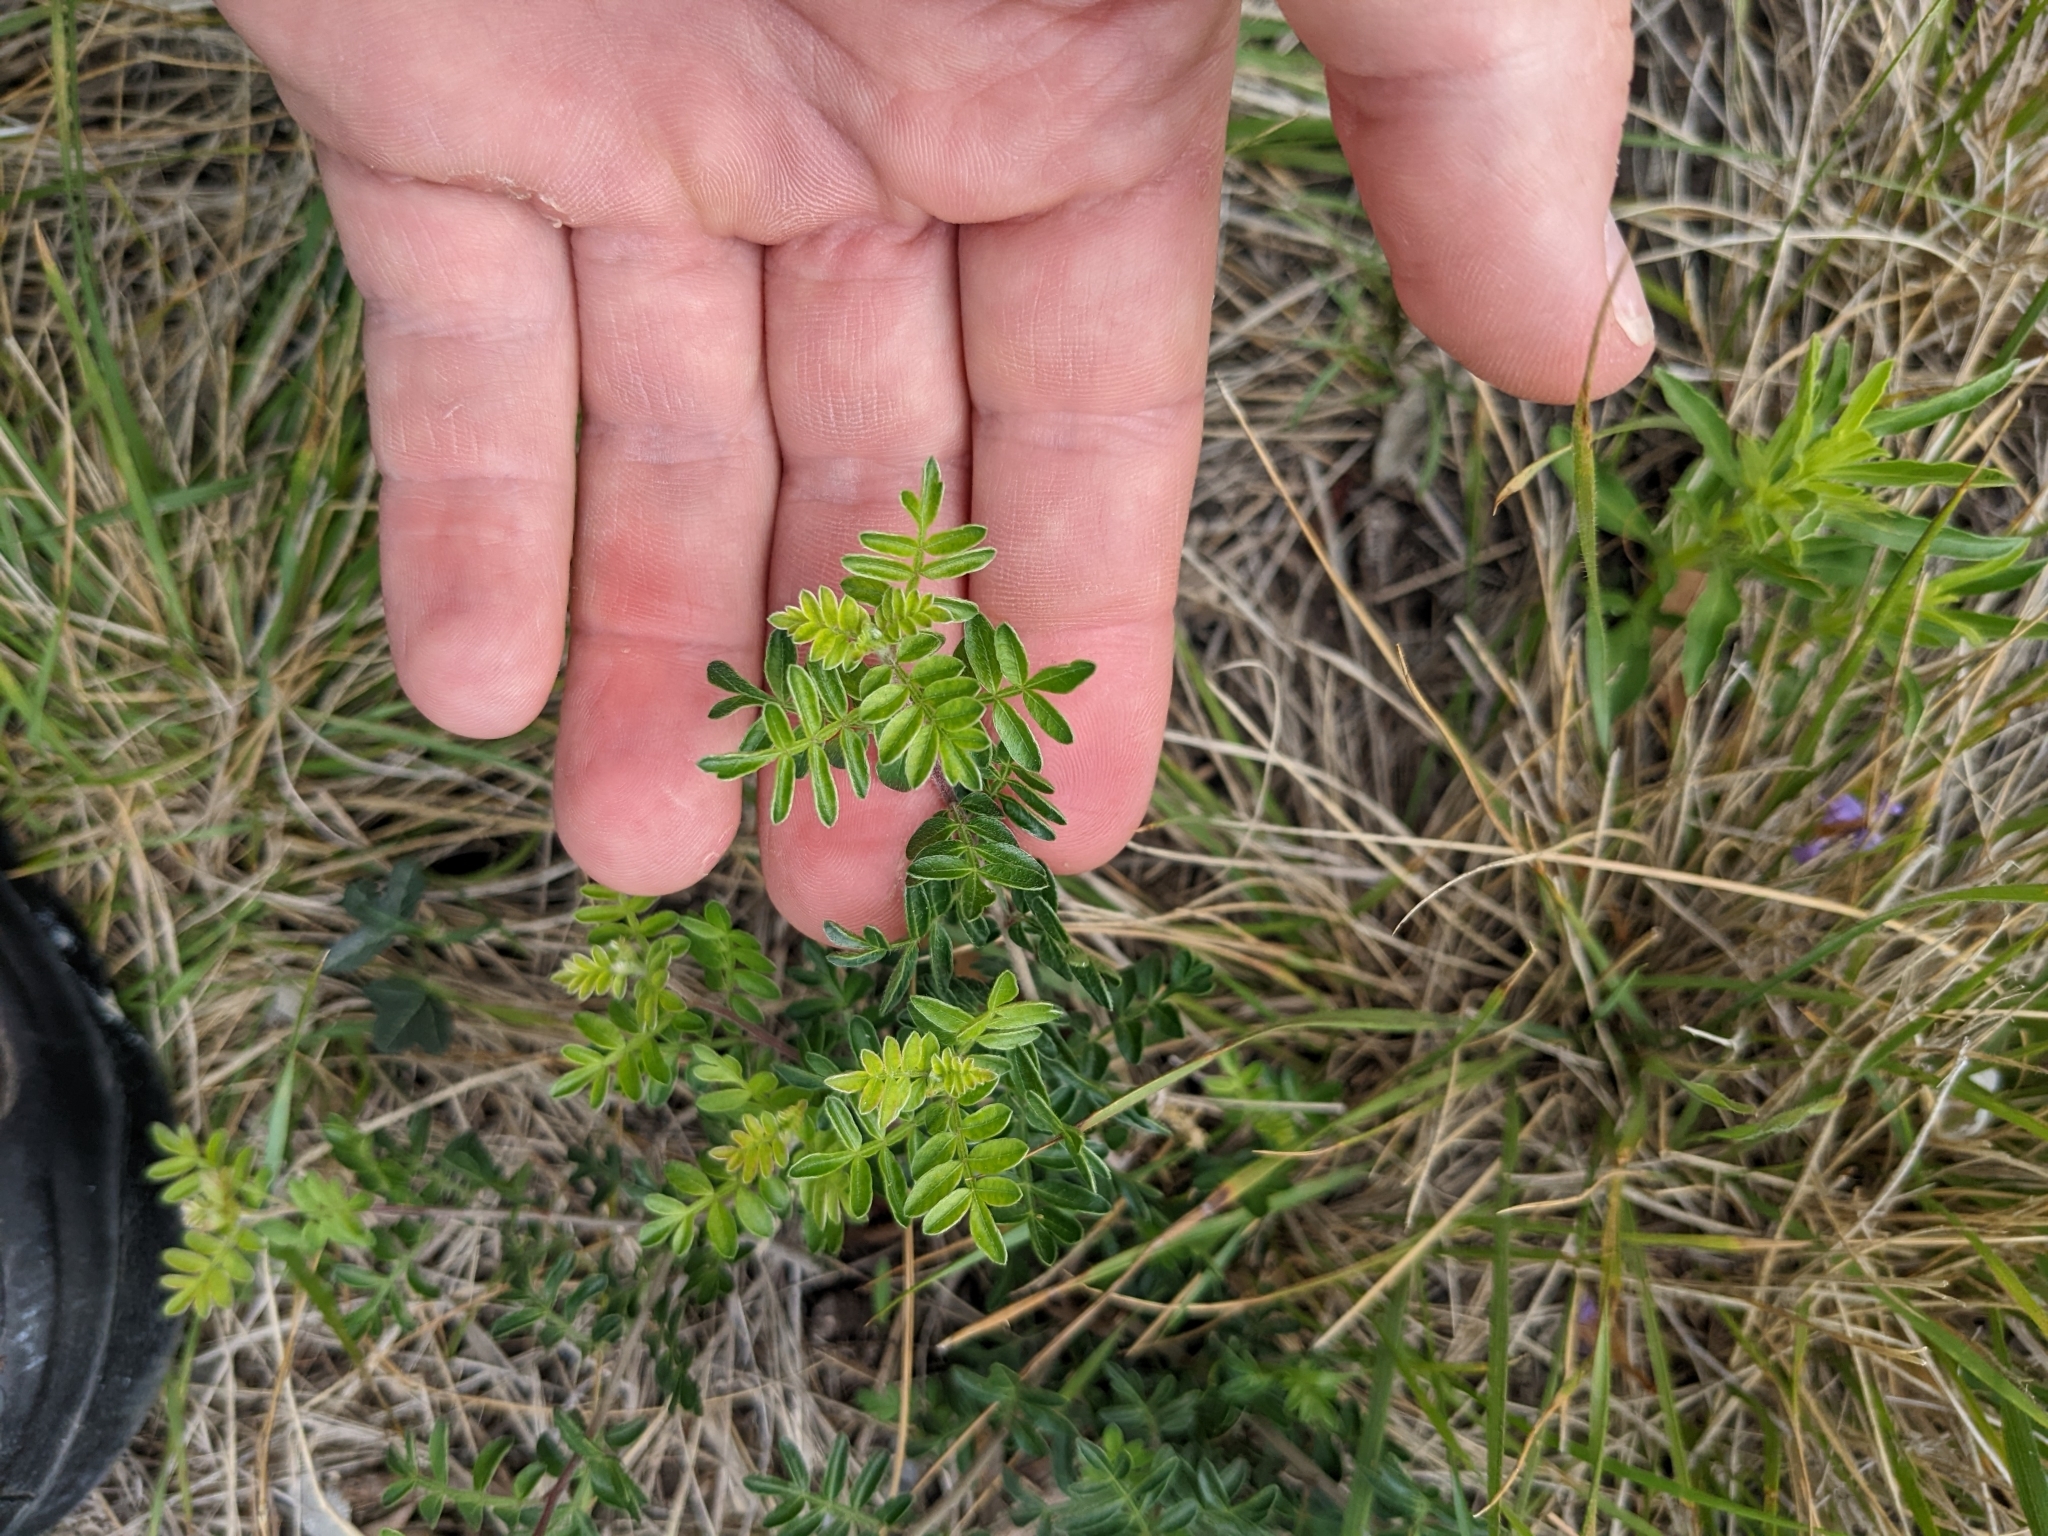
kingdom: Plantae
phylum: Tracheophyta
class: Magnoliopsida
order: Sapindales
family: Anacardiaceae
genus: Rhus
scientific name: Rhus microphylla
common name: Desert sumac
